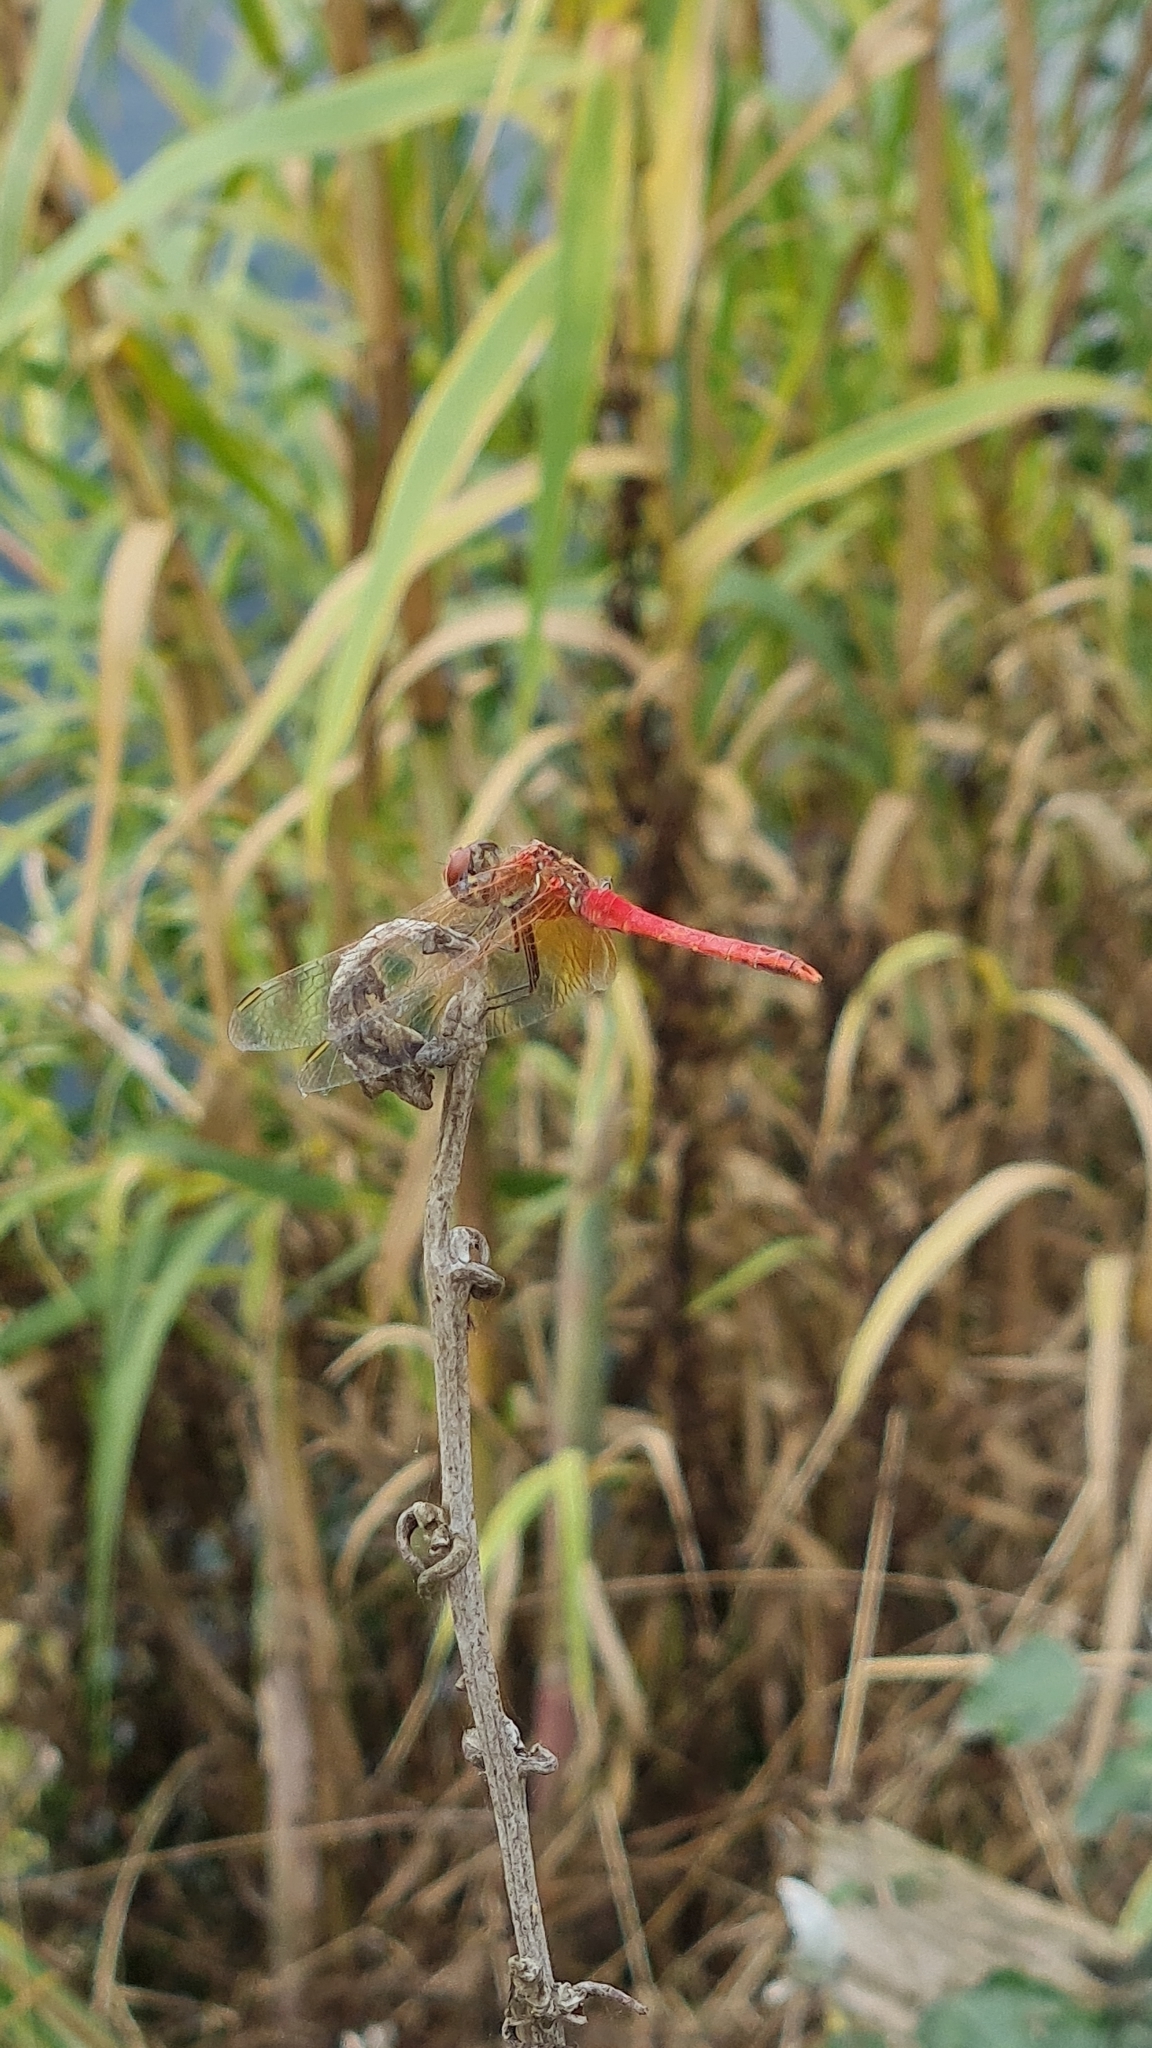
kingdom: Animalia
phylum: Arthropoda
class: Insecta
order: Odonata
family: Libellulidae
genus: Sympetrum
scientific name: Sympetrum fonscolombii
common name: Red-veined darter
